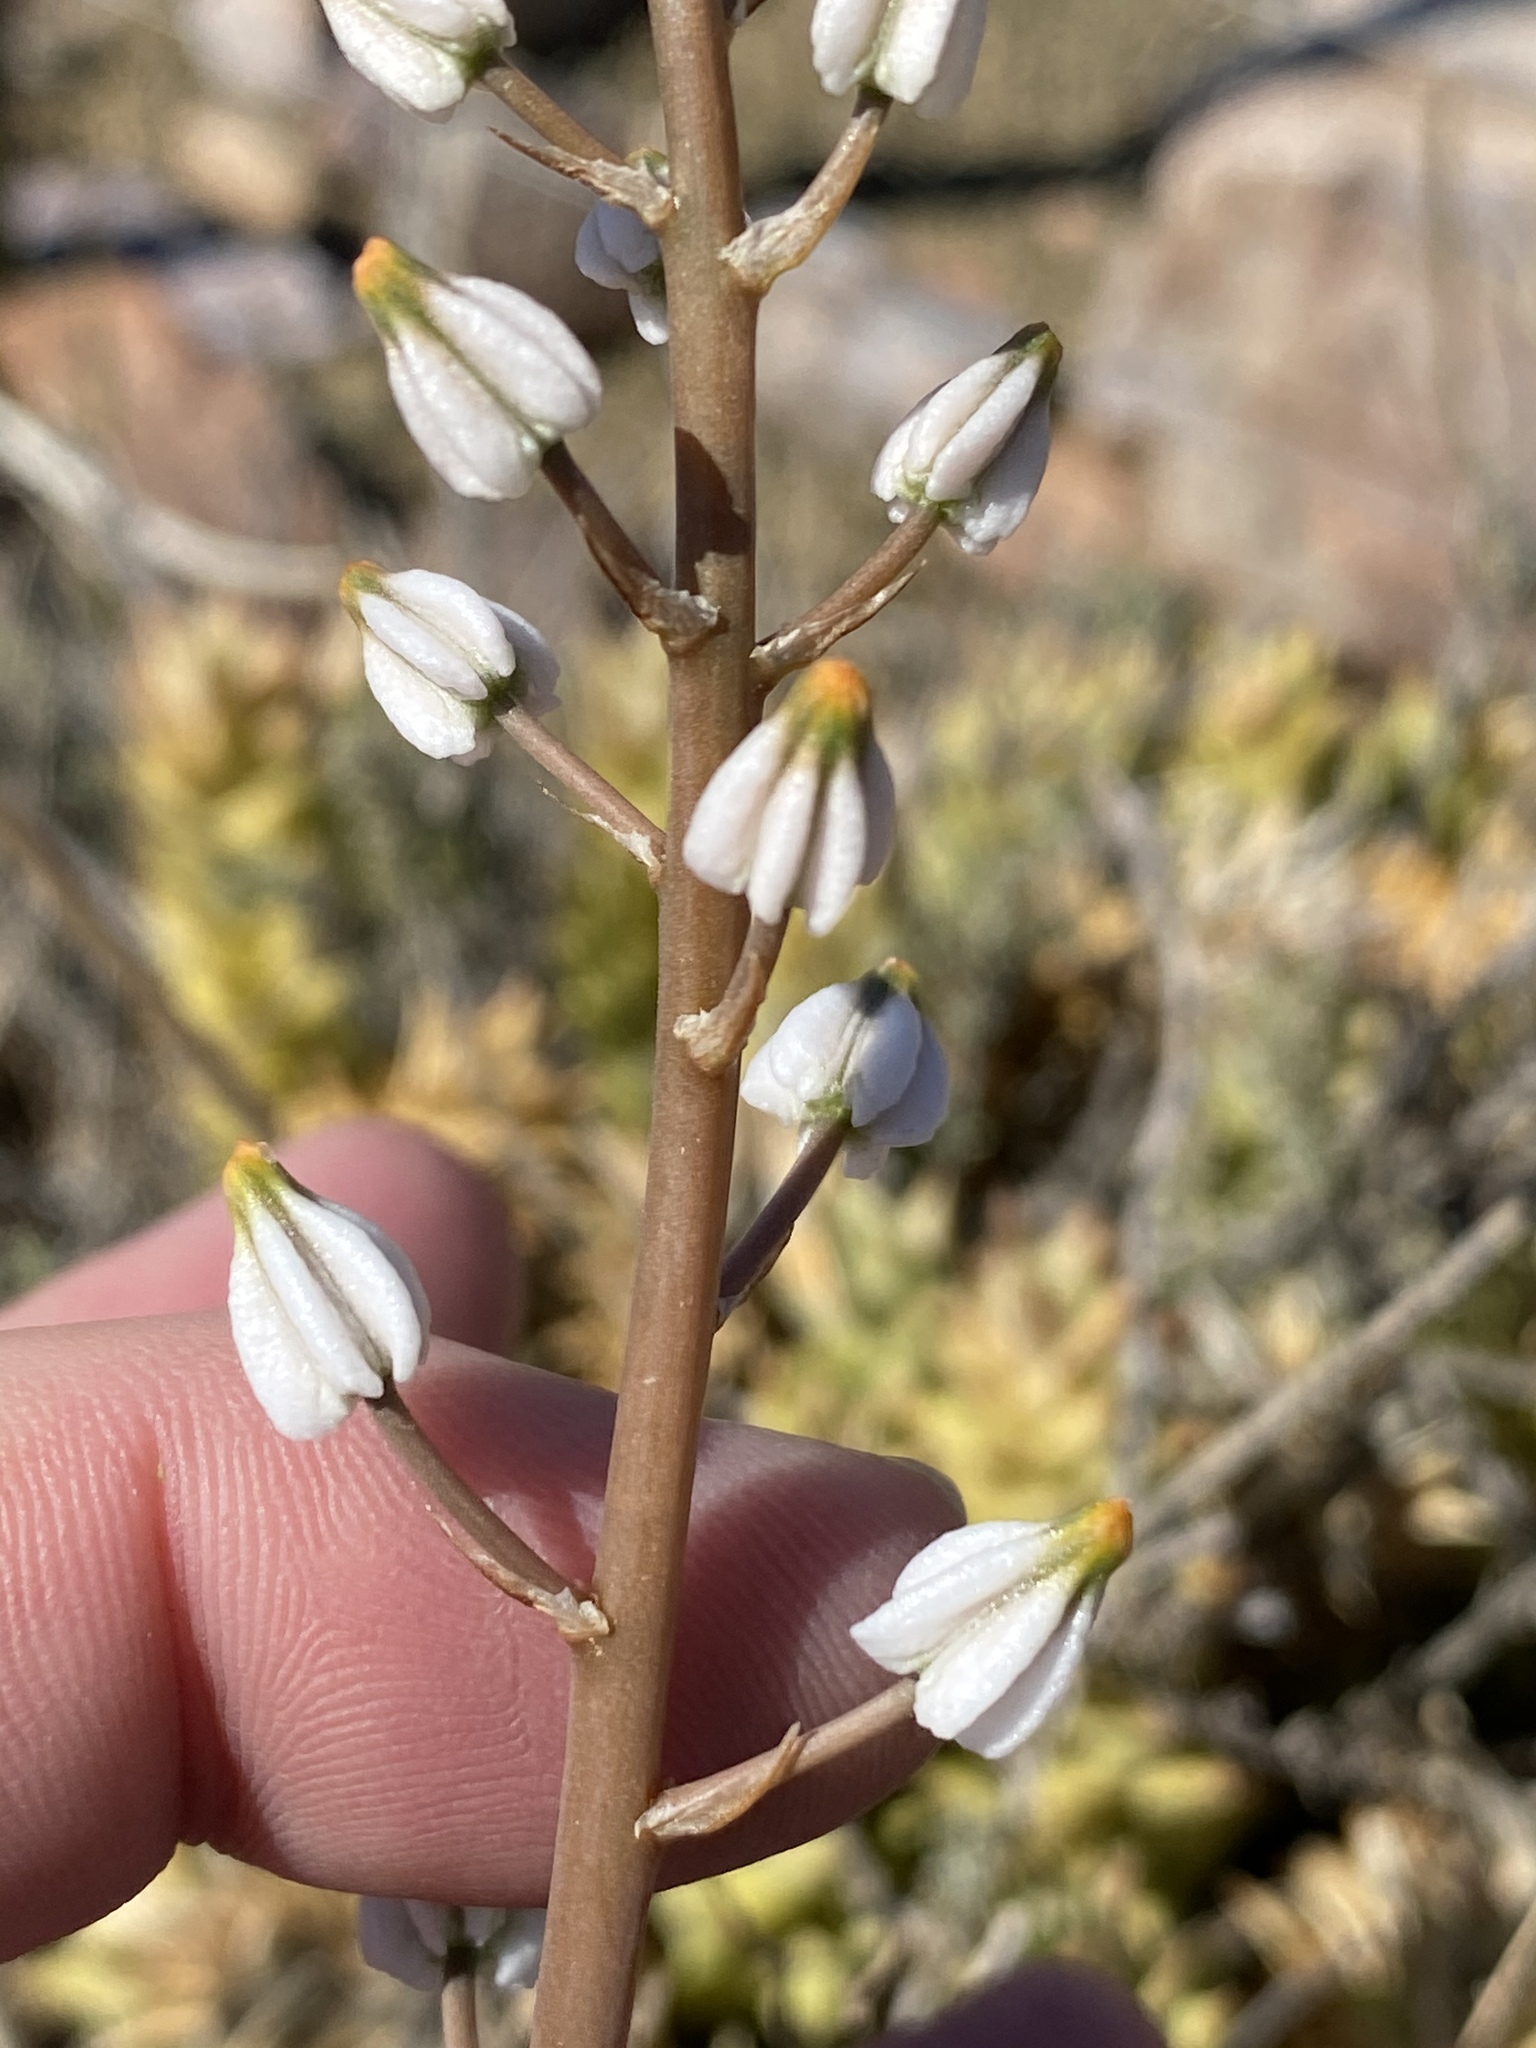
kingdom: Plantae
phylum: Tracheophyta
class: Liliopsida
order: Asparagales
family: Asphodelaceae
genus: Astroloba
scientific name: Astroloba herrei
